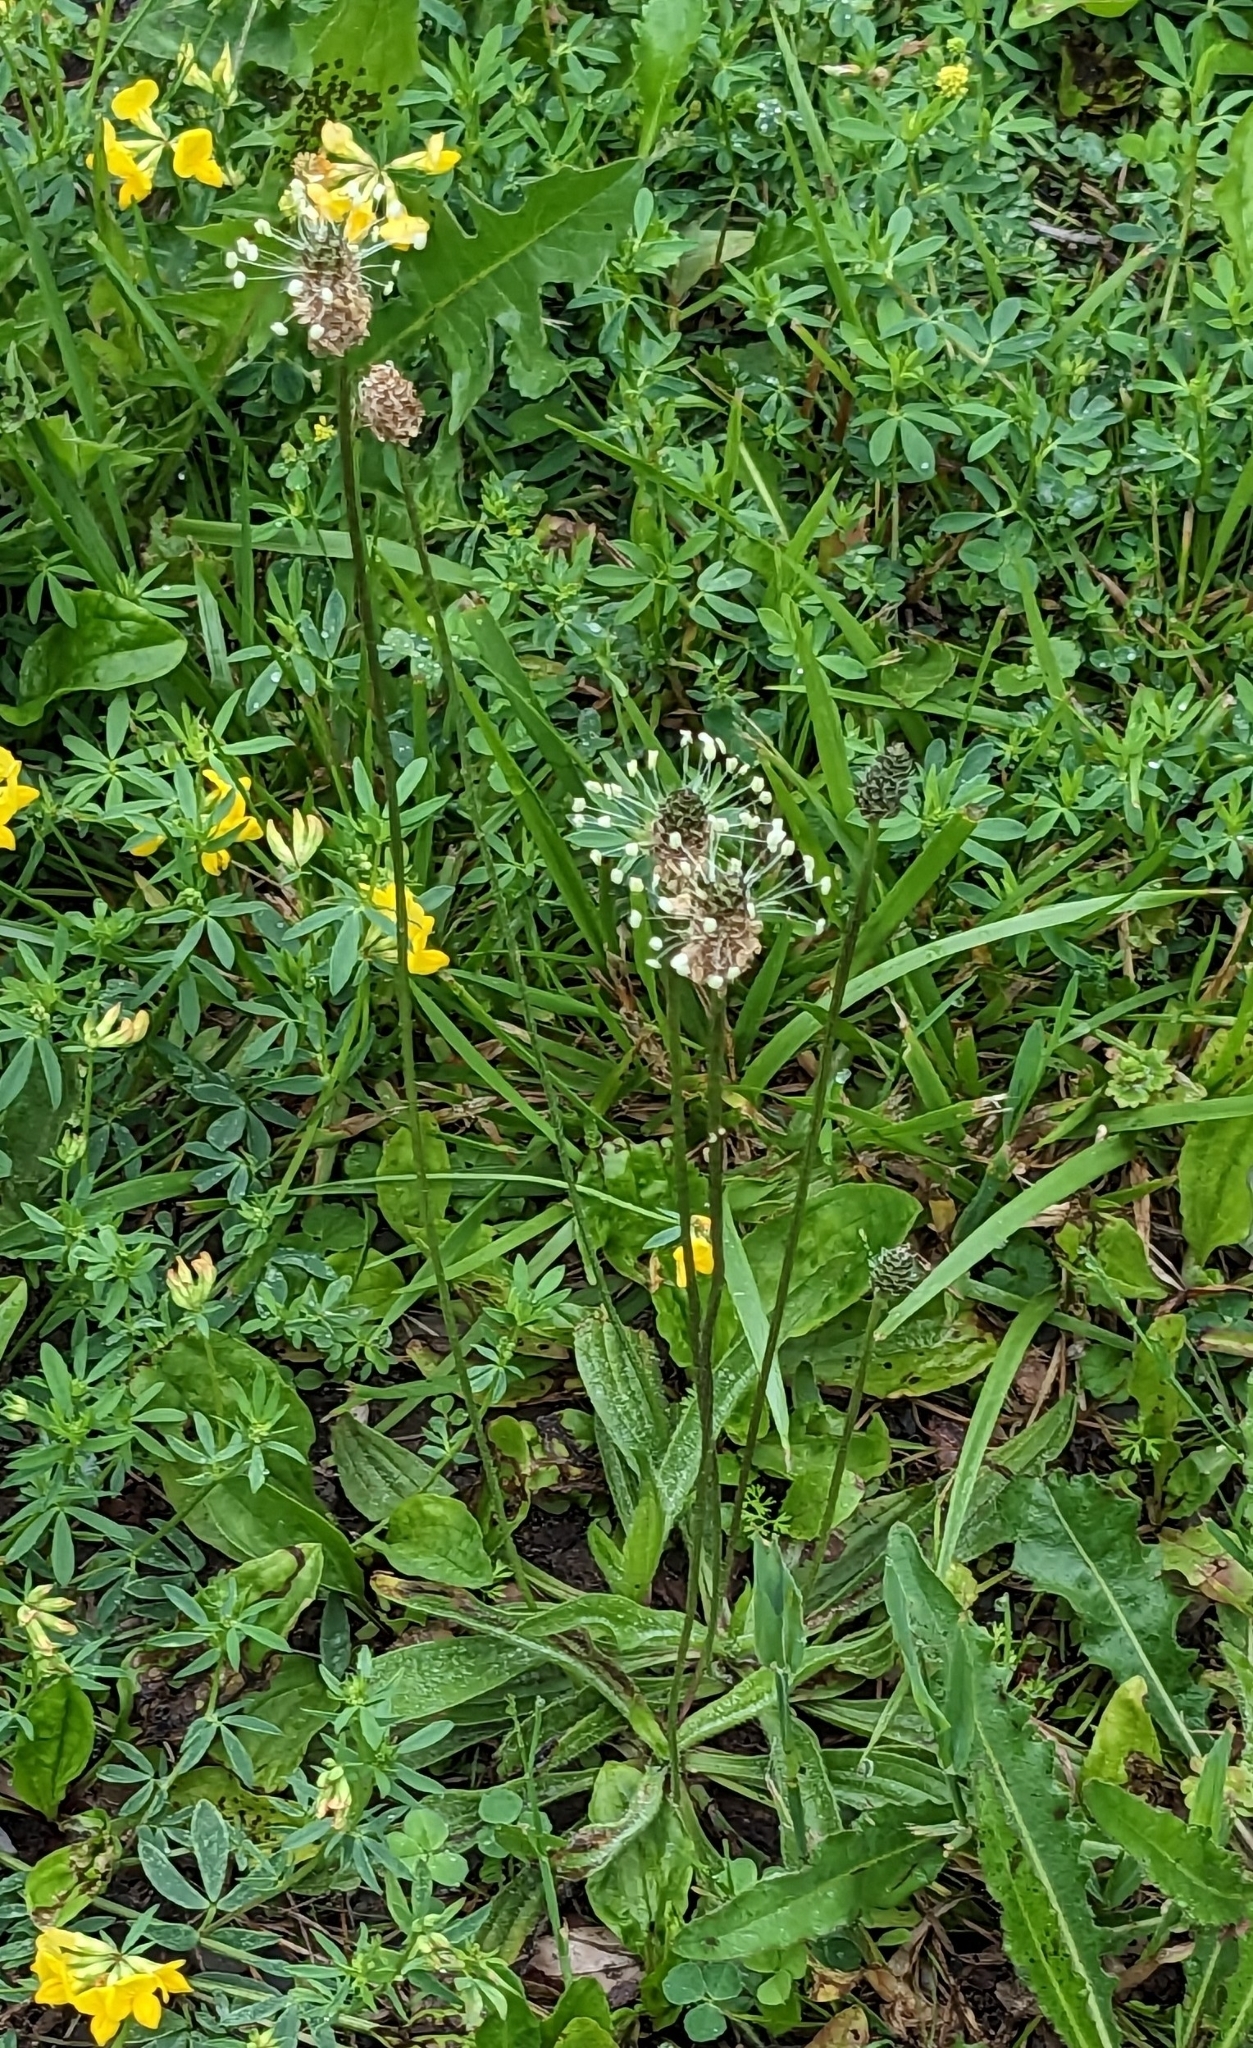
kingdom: Plantae
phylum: Tracheophyta
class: Magnoliopsida
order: Lamiales
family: Plantaginaceae
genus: Plantago
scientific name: Plantago lanceolata
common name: Ribwort plantain
